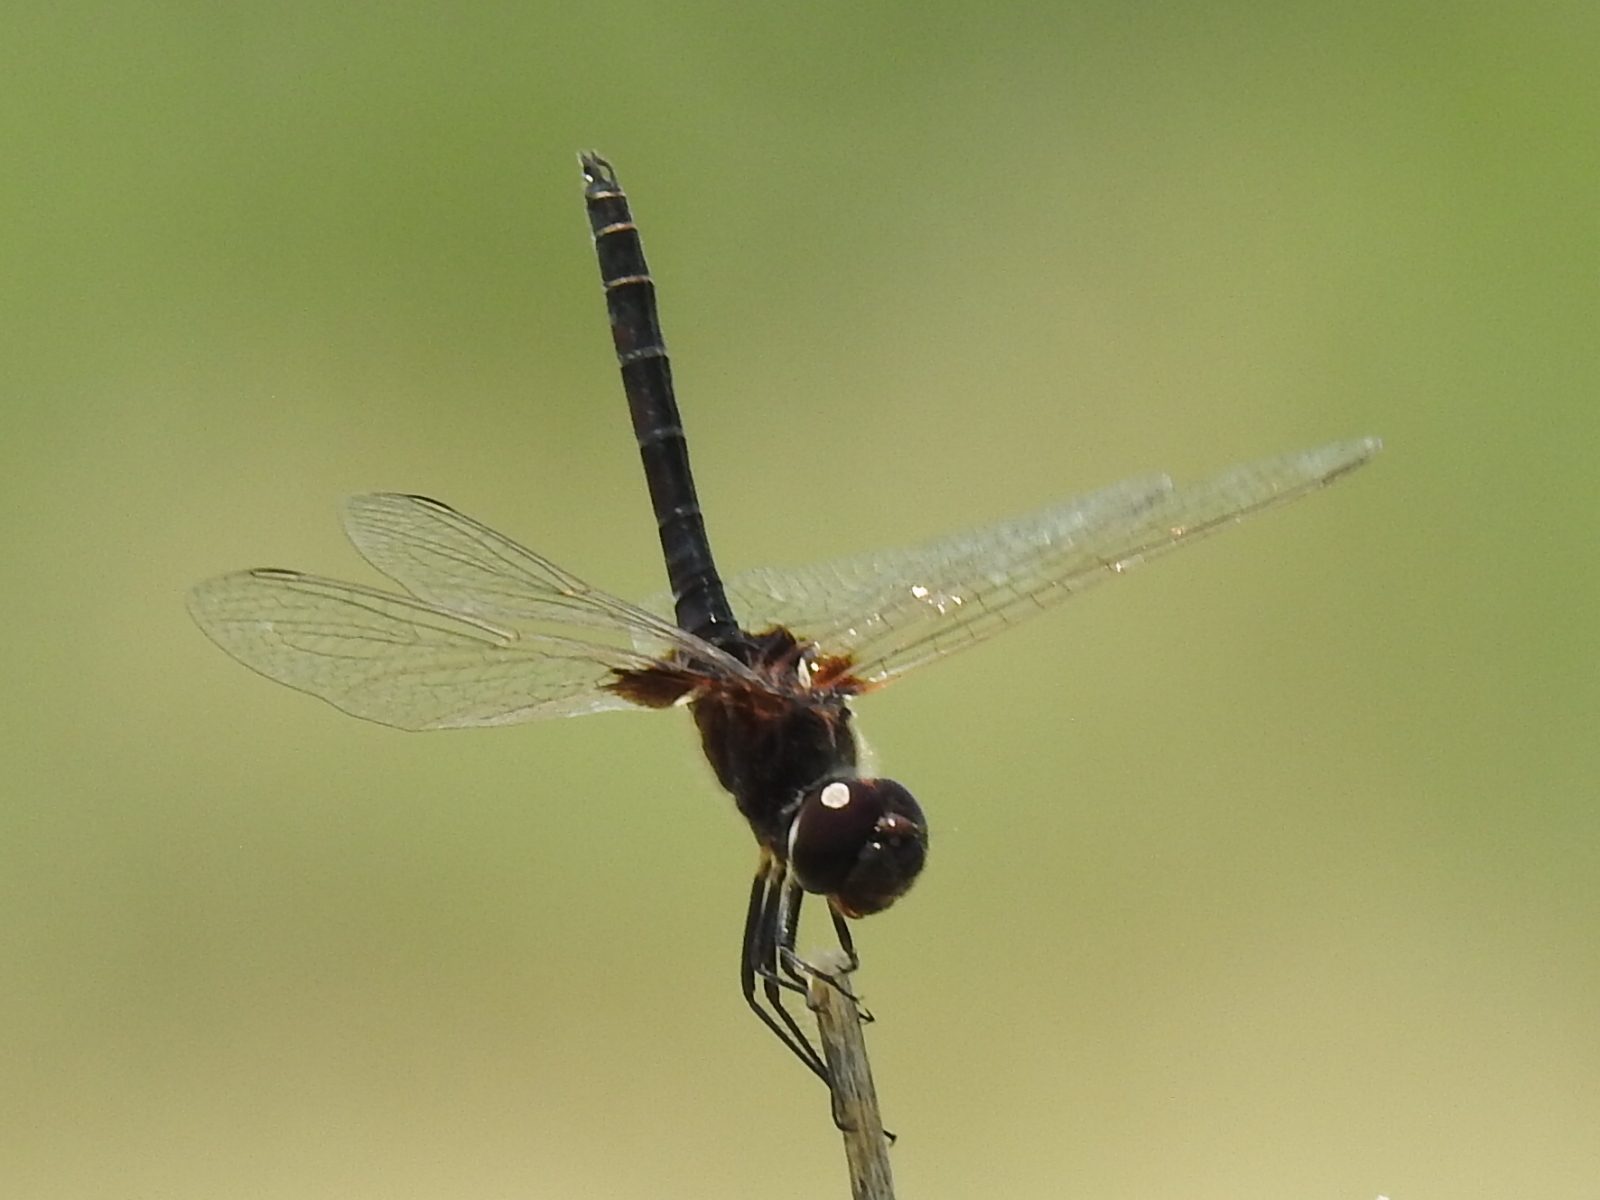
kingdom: Animalia
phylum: Arthropoda
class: Insecta
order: Odonata
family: Libellulidae
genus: Macrodiplax
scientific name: Macrodiplax balteata
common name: Marl pennant
